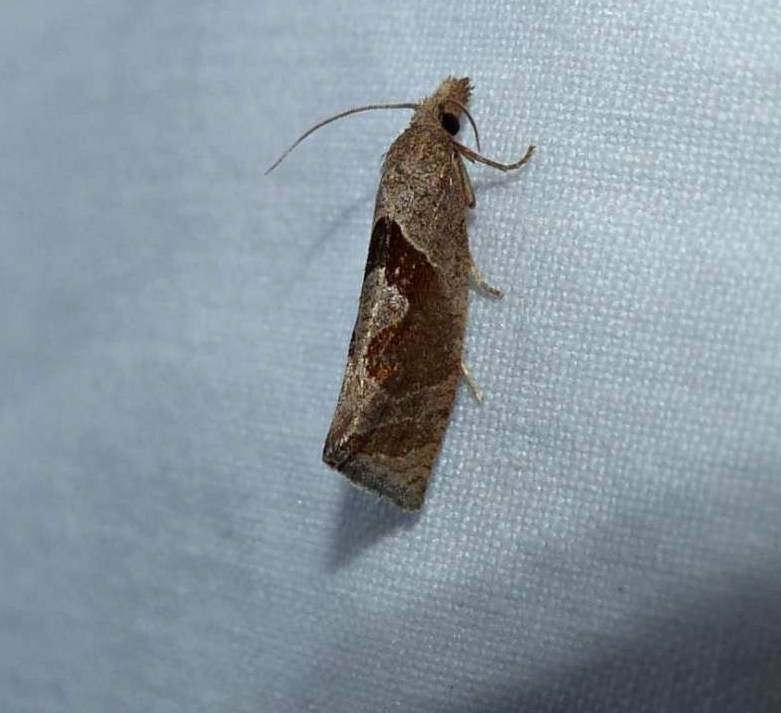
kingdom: Animalia
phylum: Arthropoda
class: Insecta
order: Lepidoptera
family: Tortricidae
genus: Pelochrista
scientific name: Pelochrista similiana
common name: Similar eucosma
